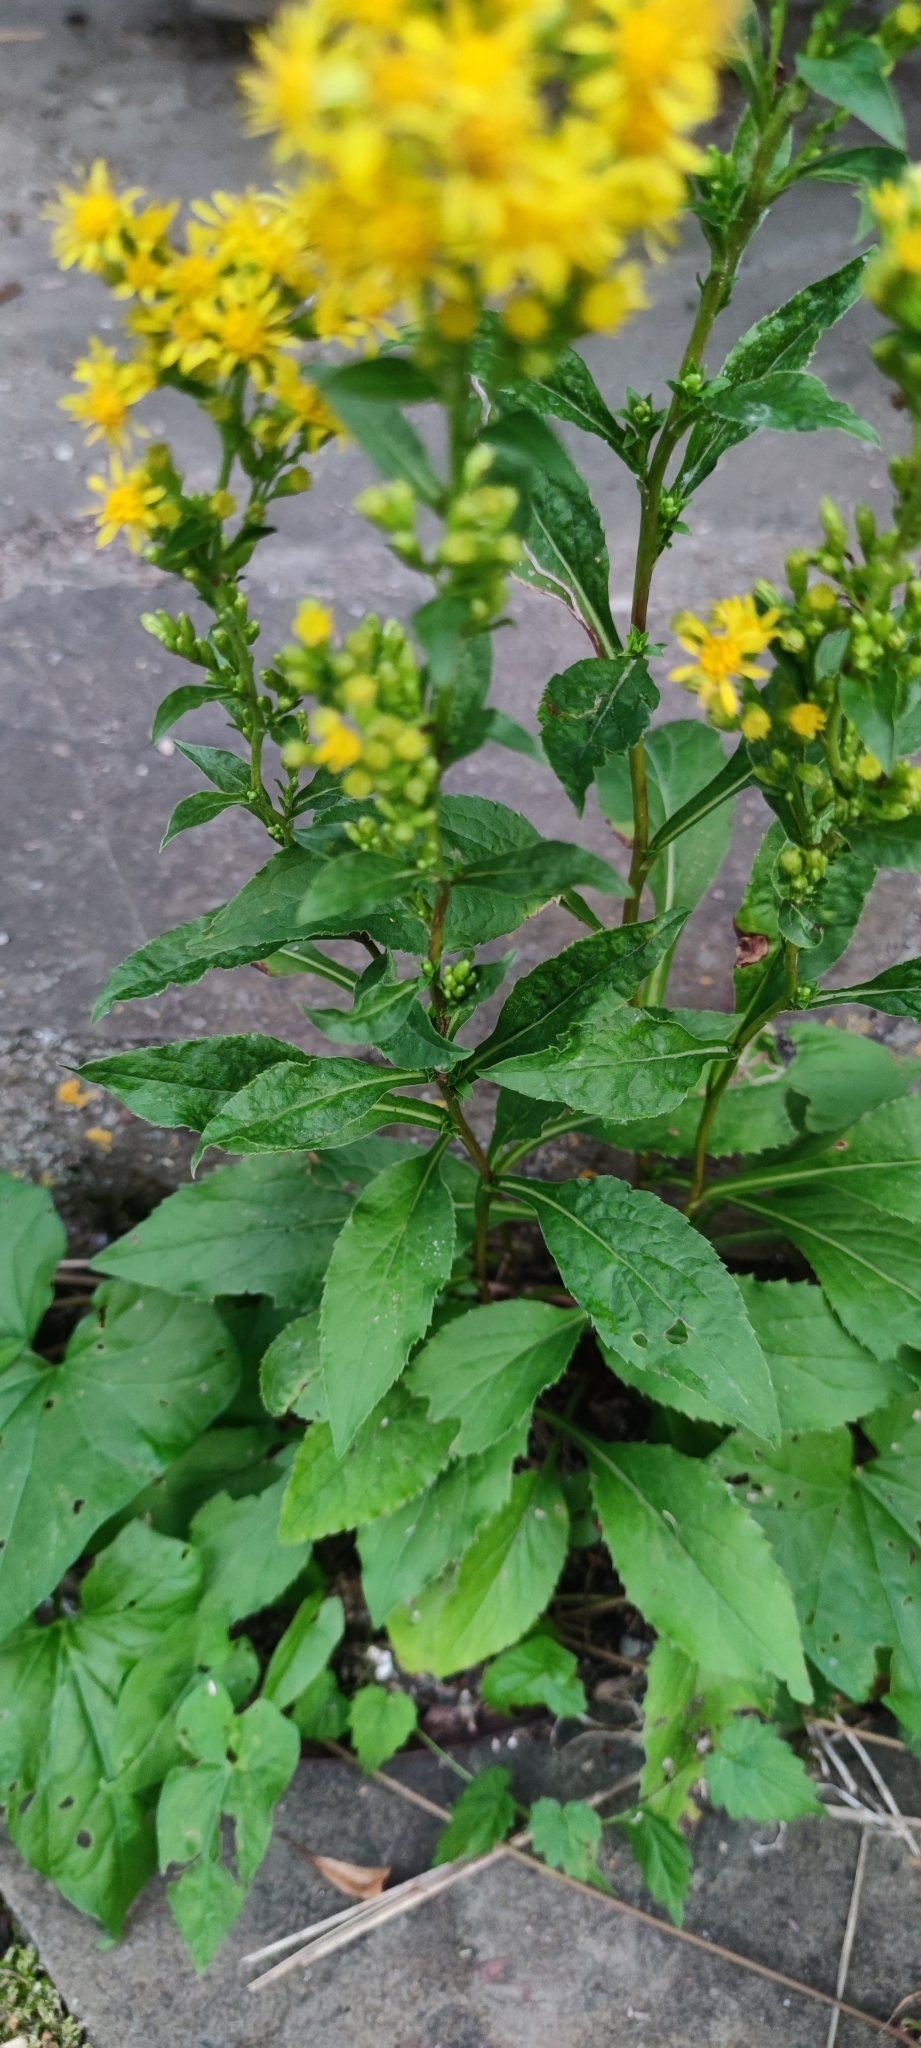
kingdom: Plantae
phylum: Tracheophyta
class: Magnoliopsida
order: Asterales
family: Asteraceae
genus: Solidago
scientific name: Solidago virgaurea
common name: Goldenrod
